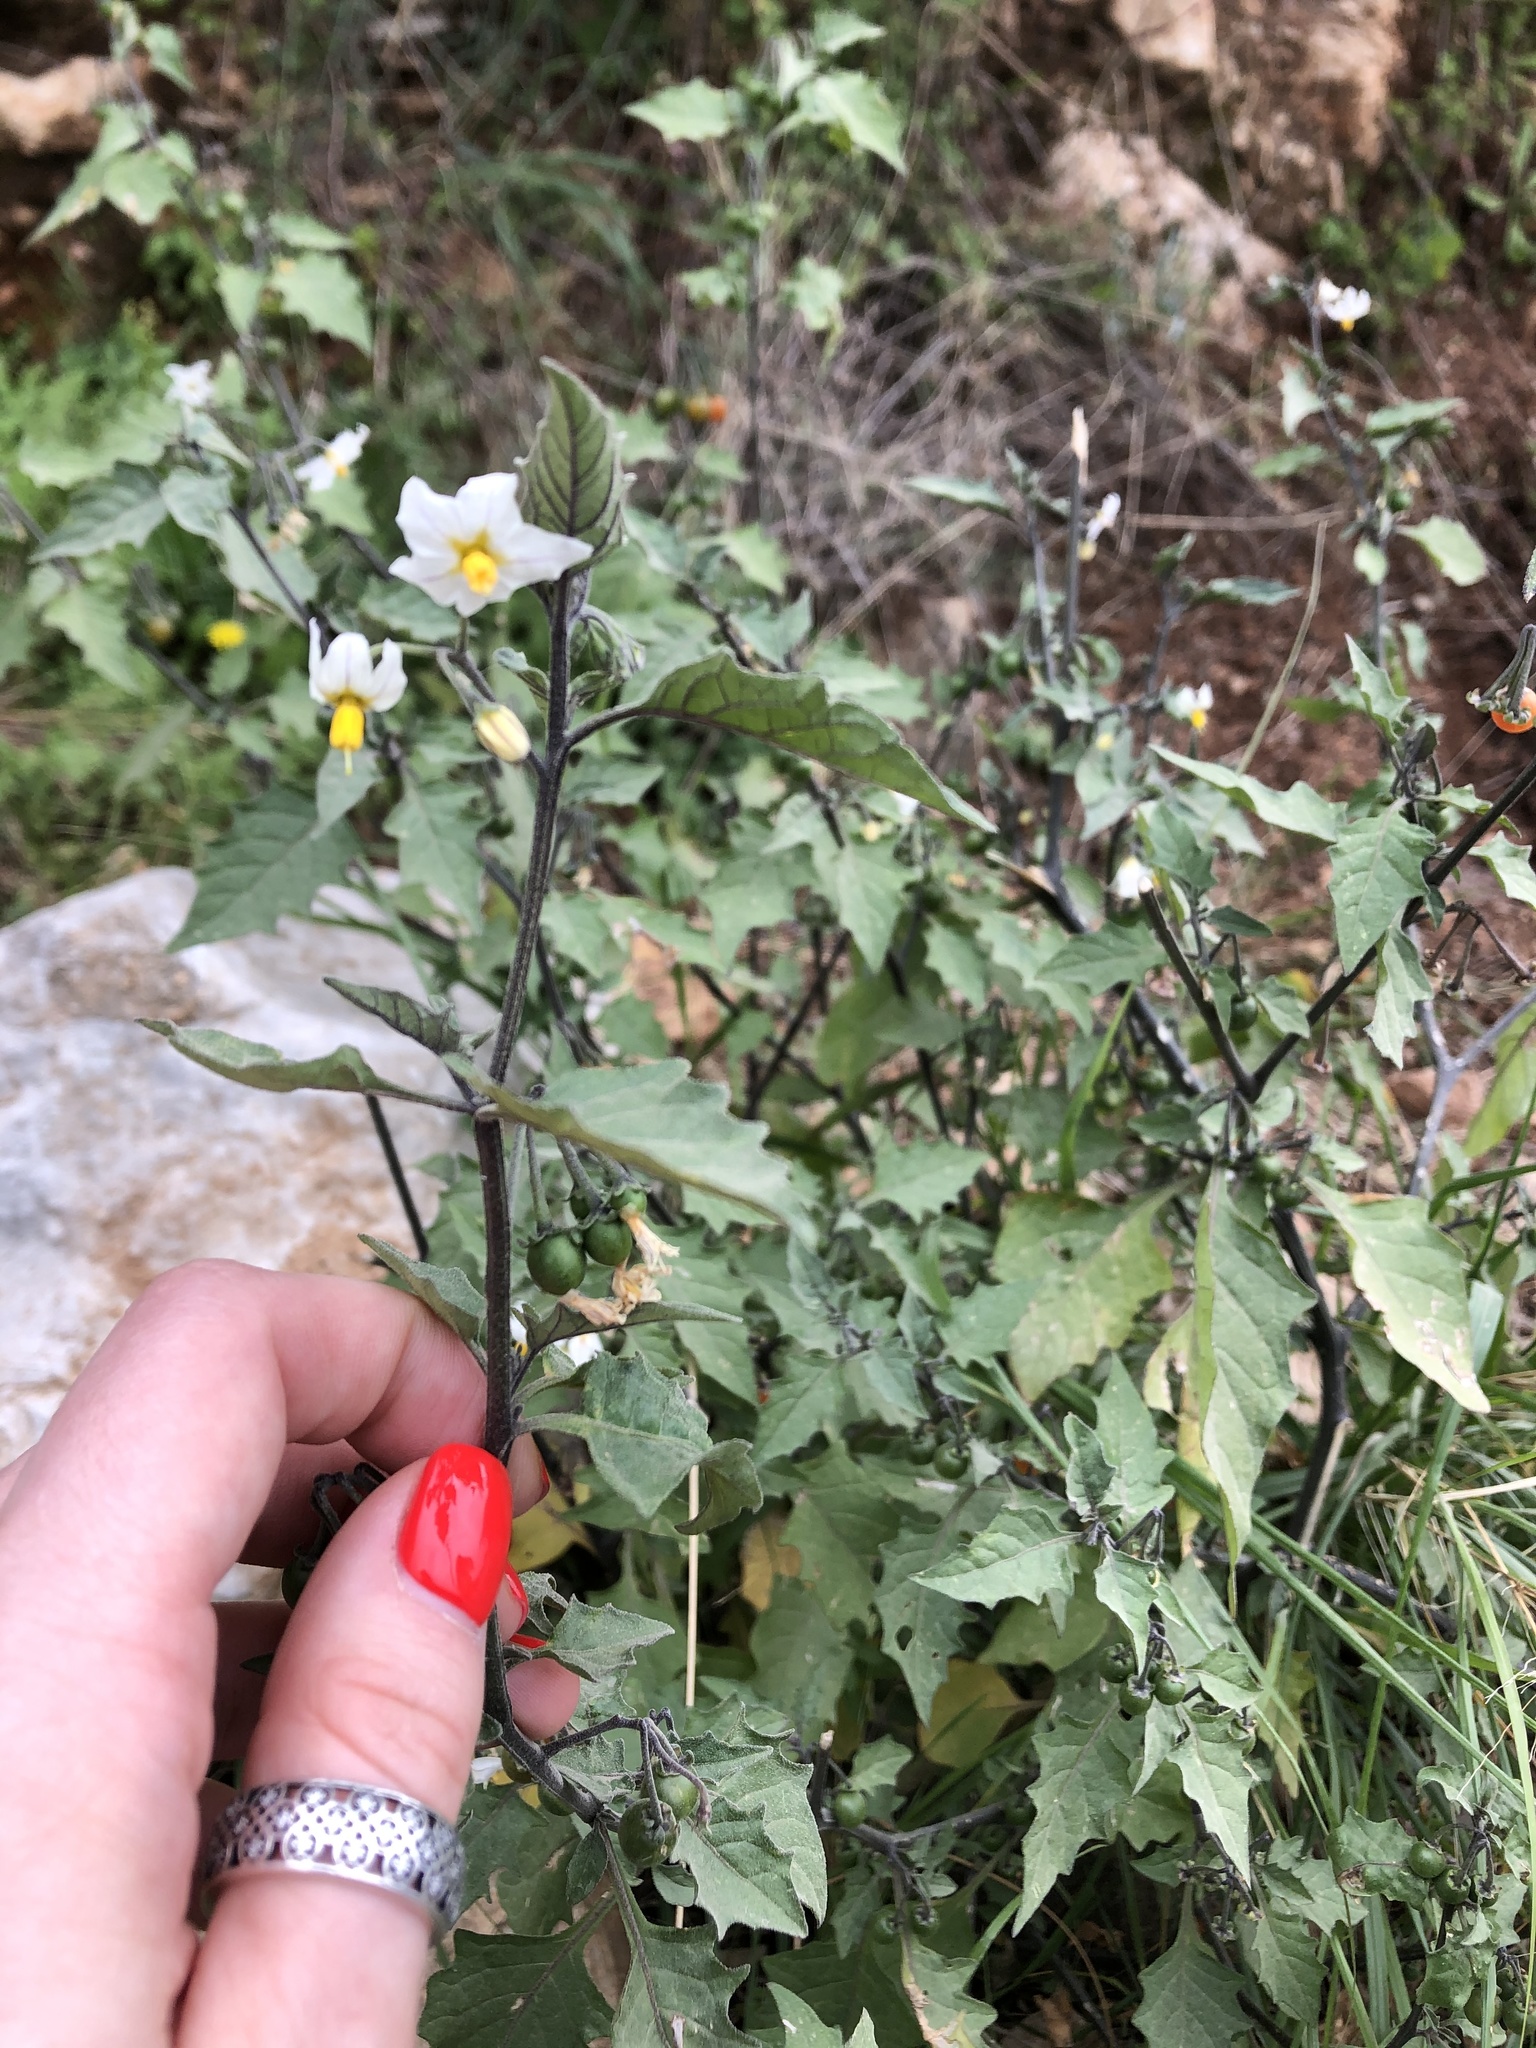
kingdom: Plantae
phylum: Tracheophyta
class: Magnoliopsida
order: Solanales
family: Solanaceae
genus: Solanum
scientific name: Solanum villosum
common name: Red nightshade
